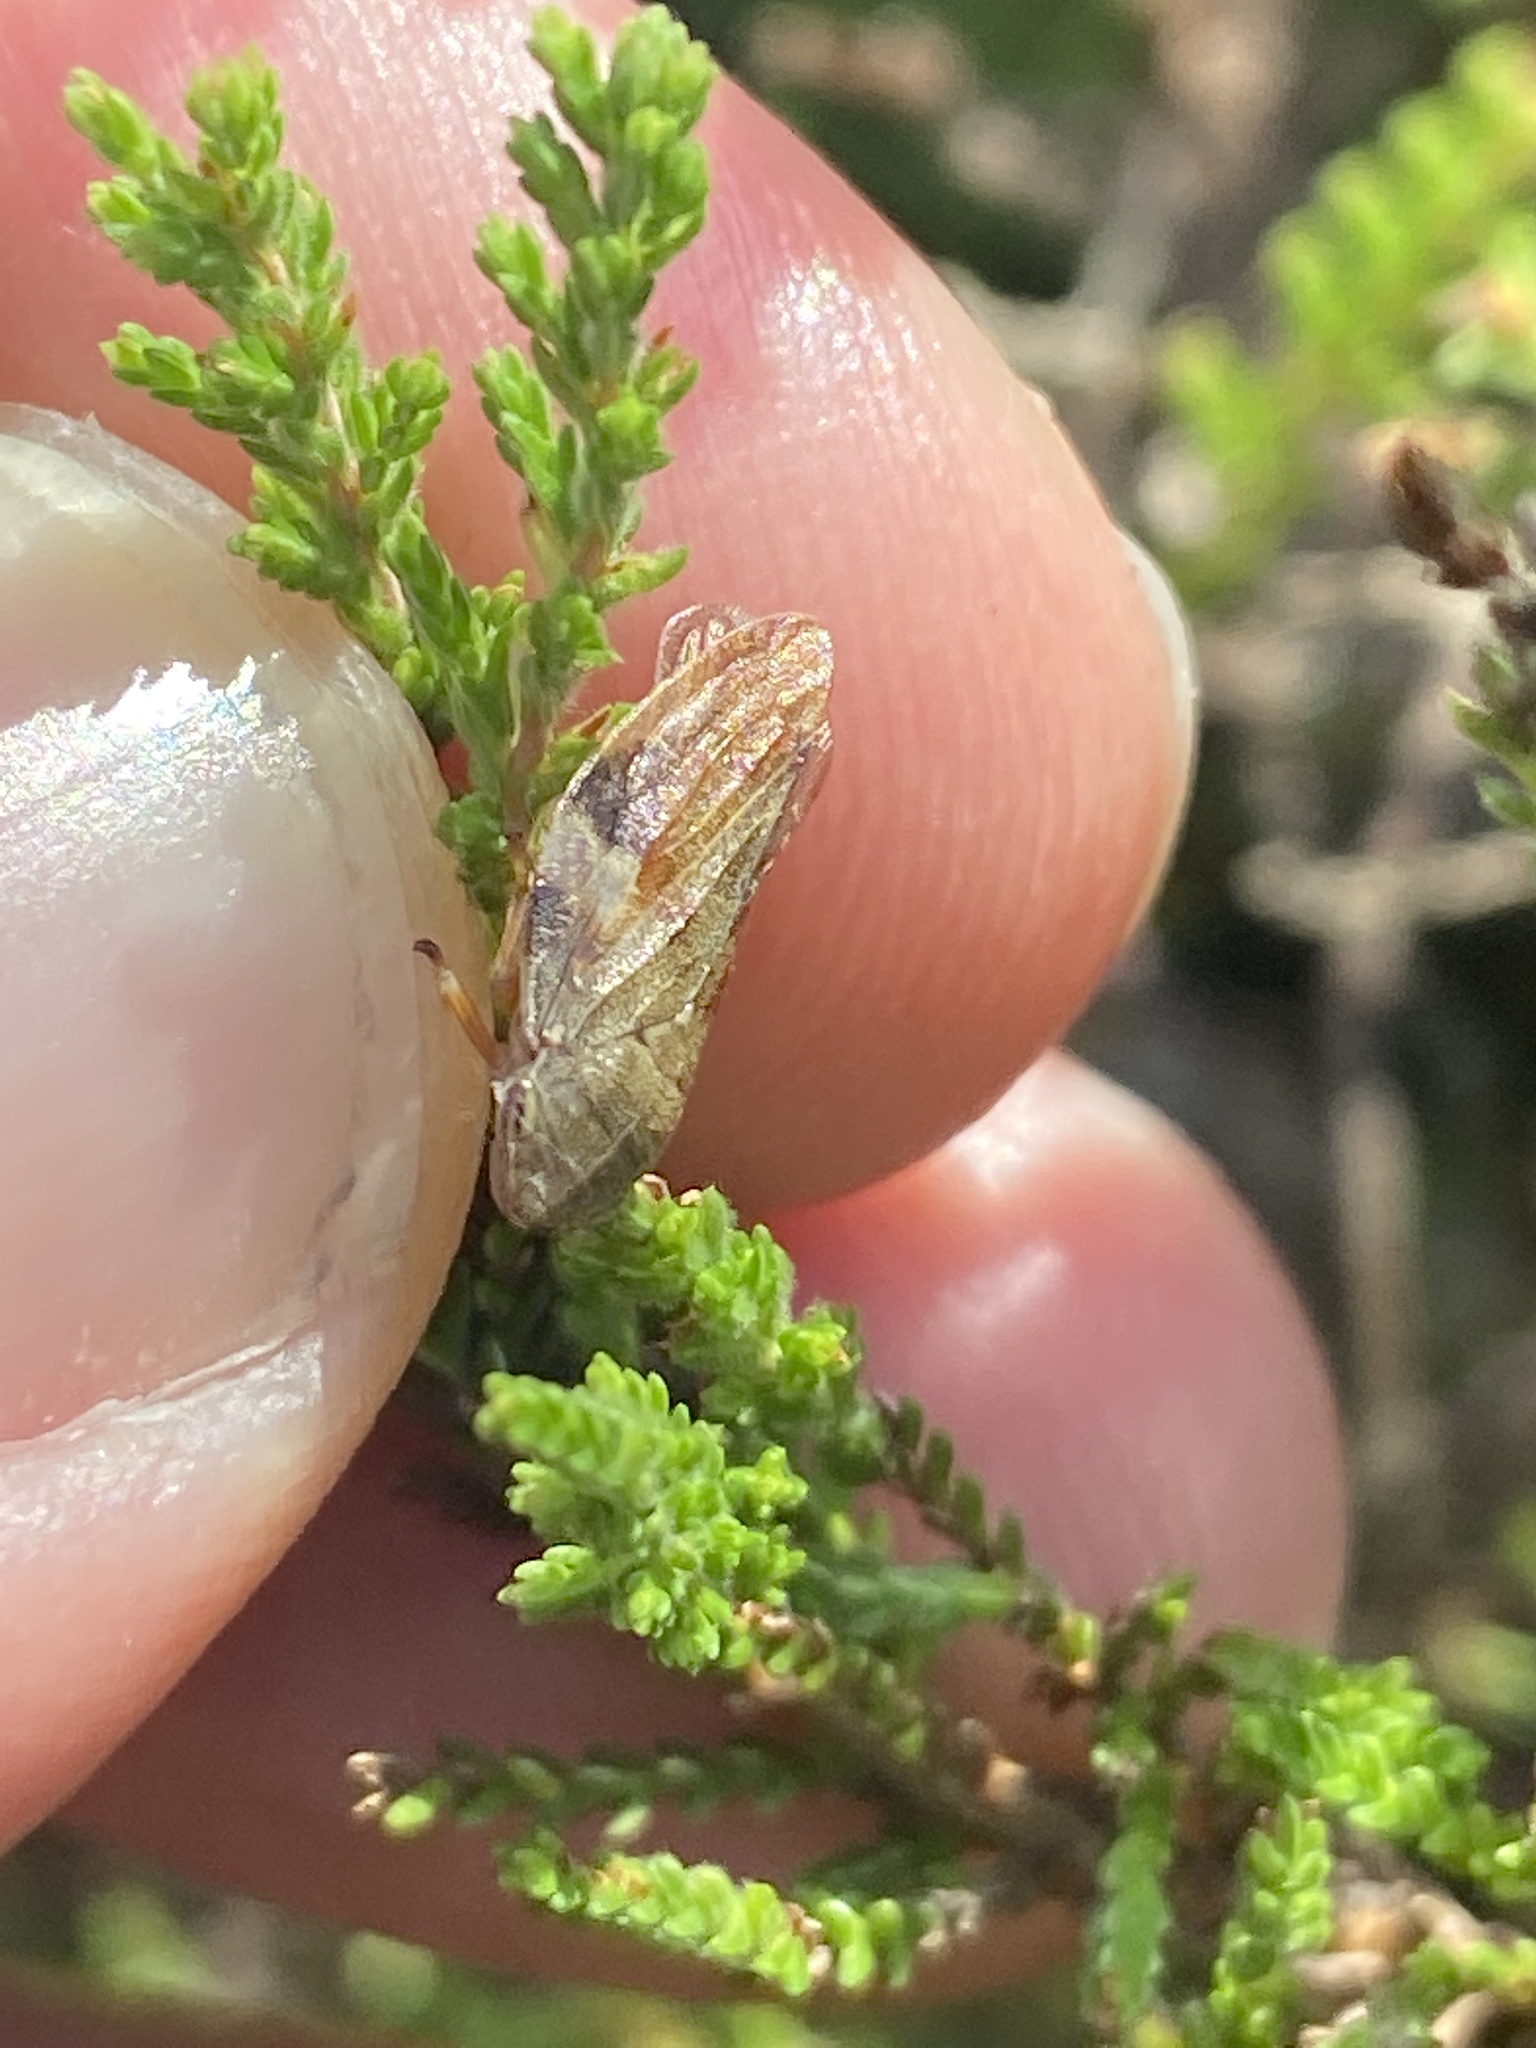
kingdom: Animalia
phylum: Arthropoda
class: Insecta
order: Hemiptera
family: Aphrophoridae
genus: Aphrophora
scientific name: Aphrophora alni
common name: European alder spittlebug
